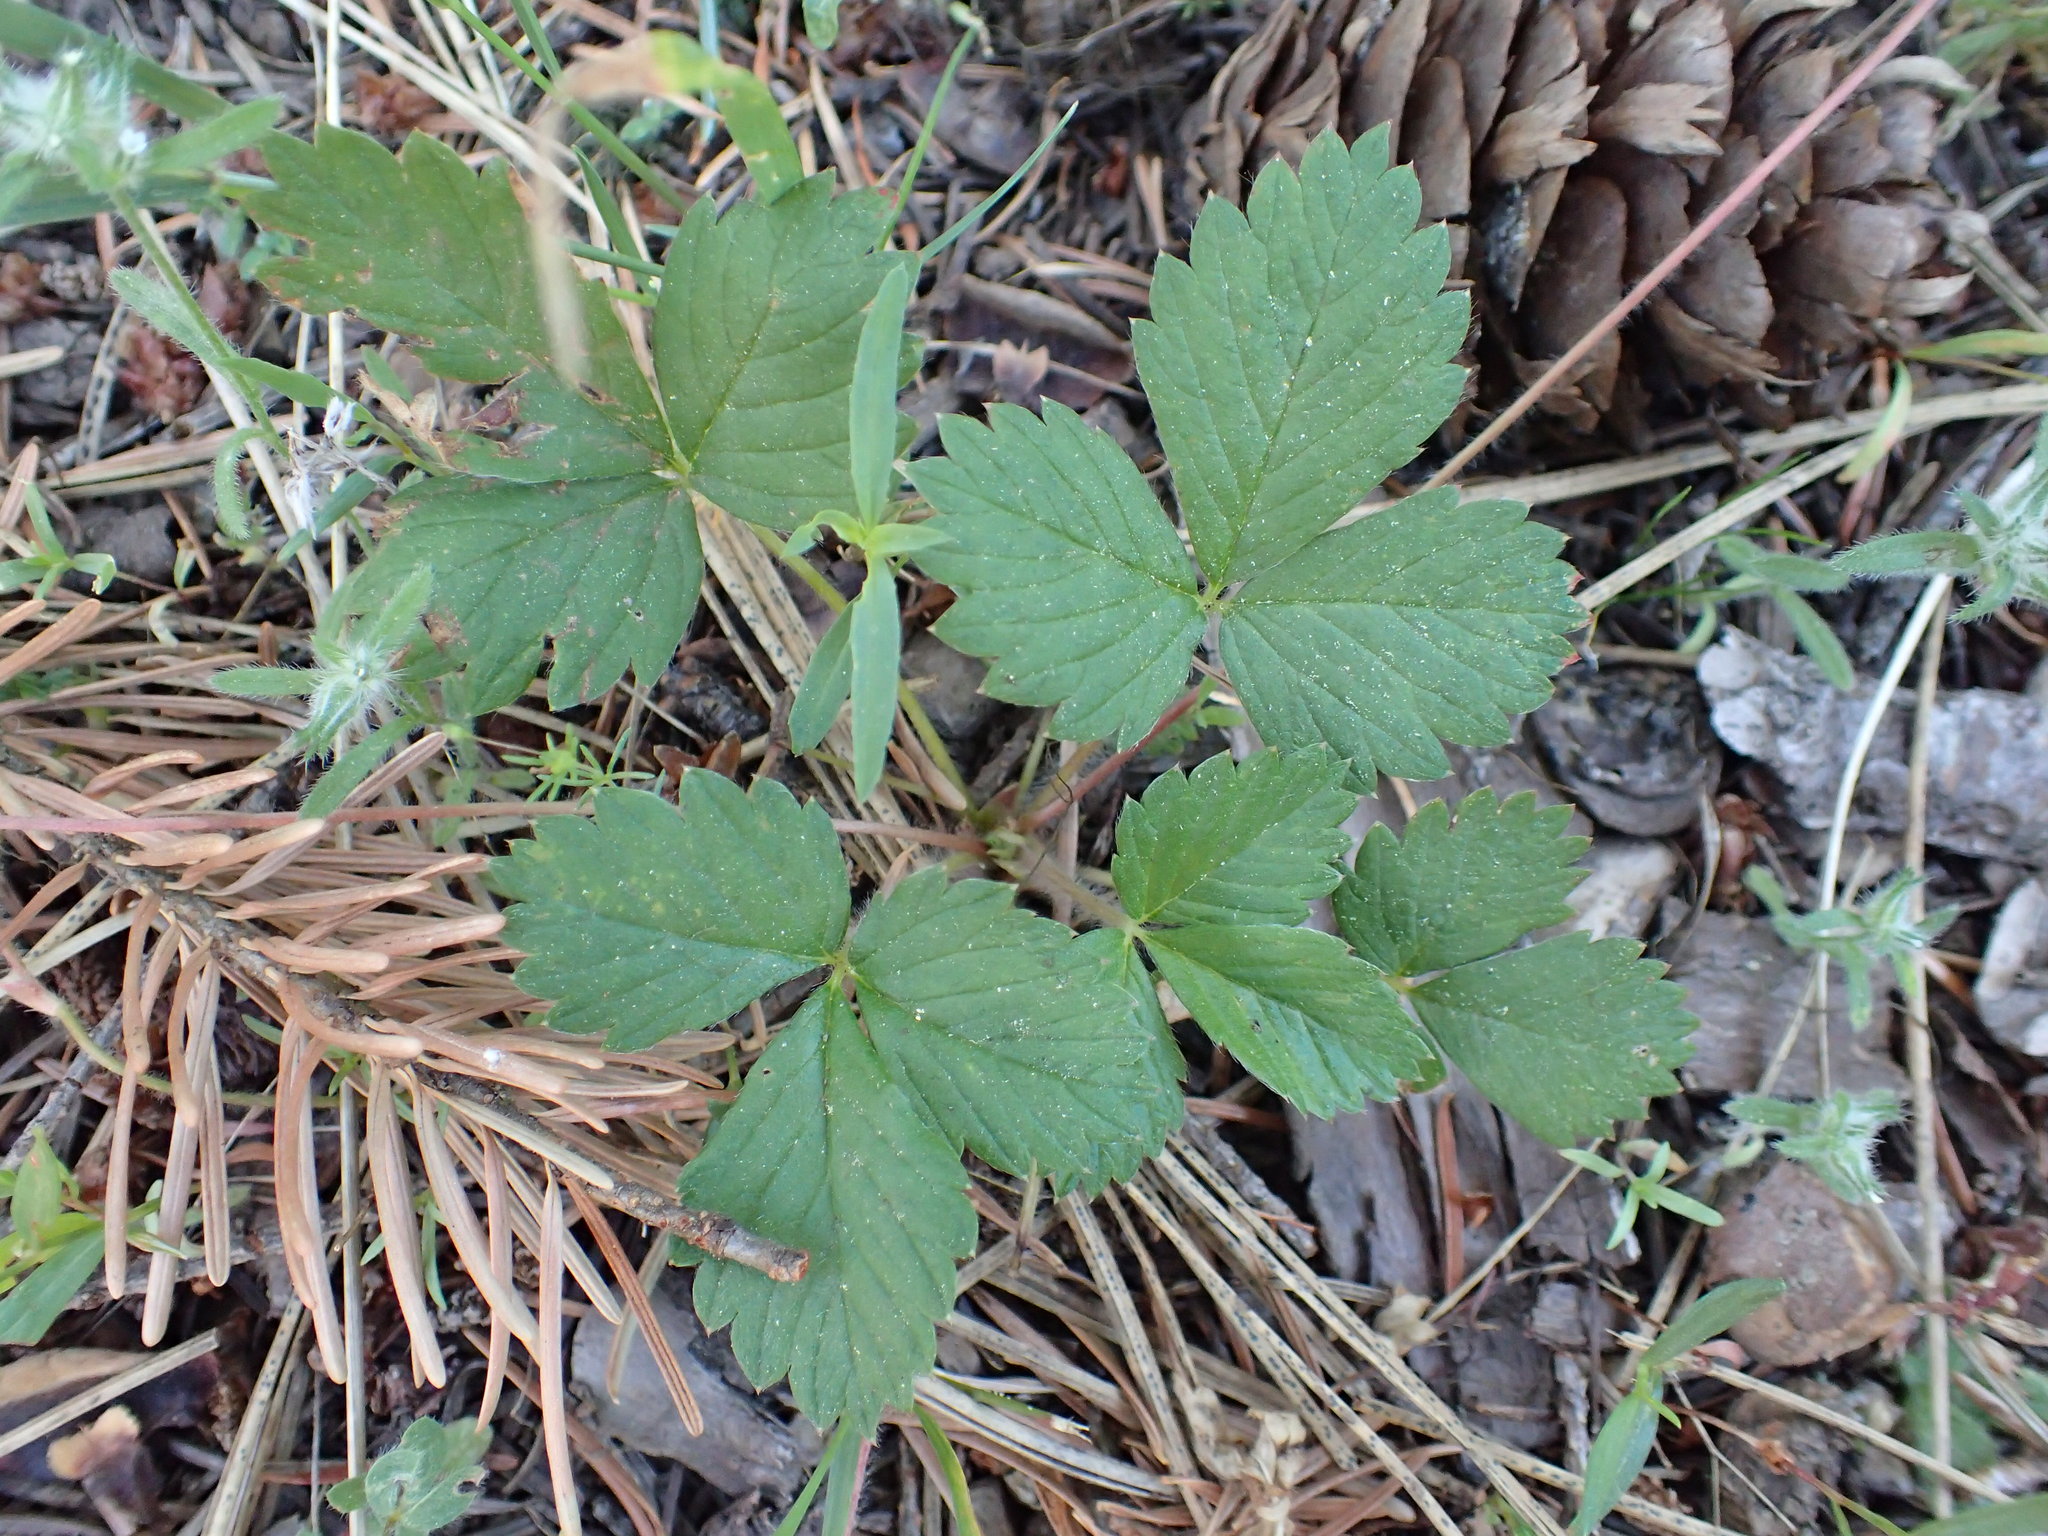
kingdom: Plantae
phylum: Tracheophyta
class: Magnoliopsida
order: Rosales
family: Rosaceae
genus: Fragaria
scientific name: Fragaria vesca
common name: Wild strawberry
